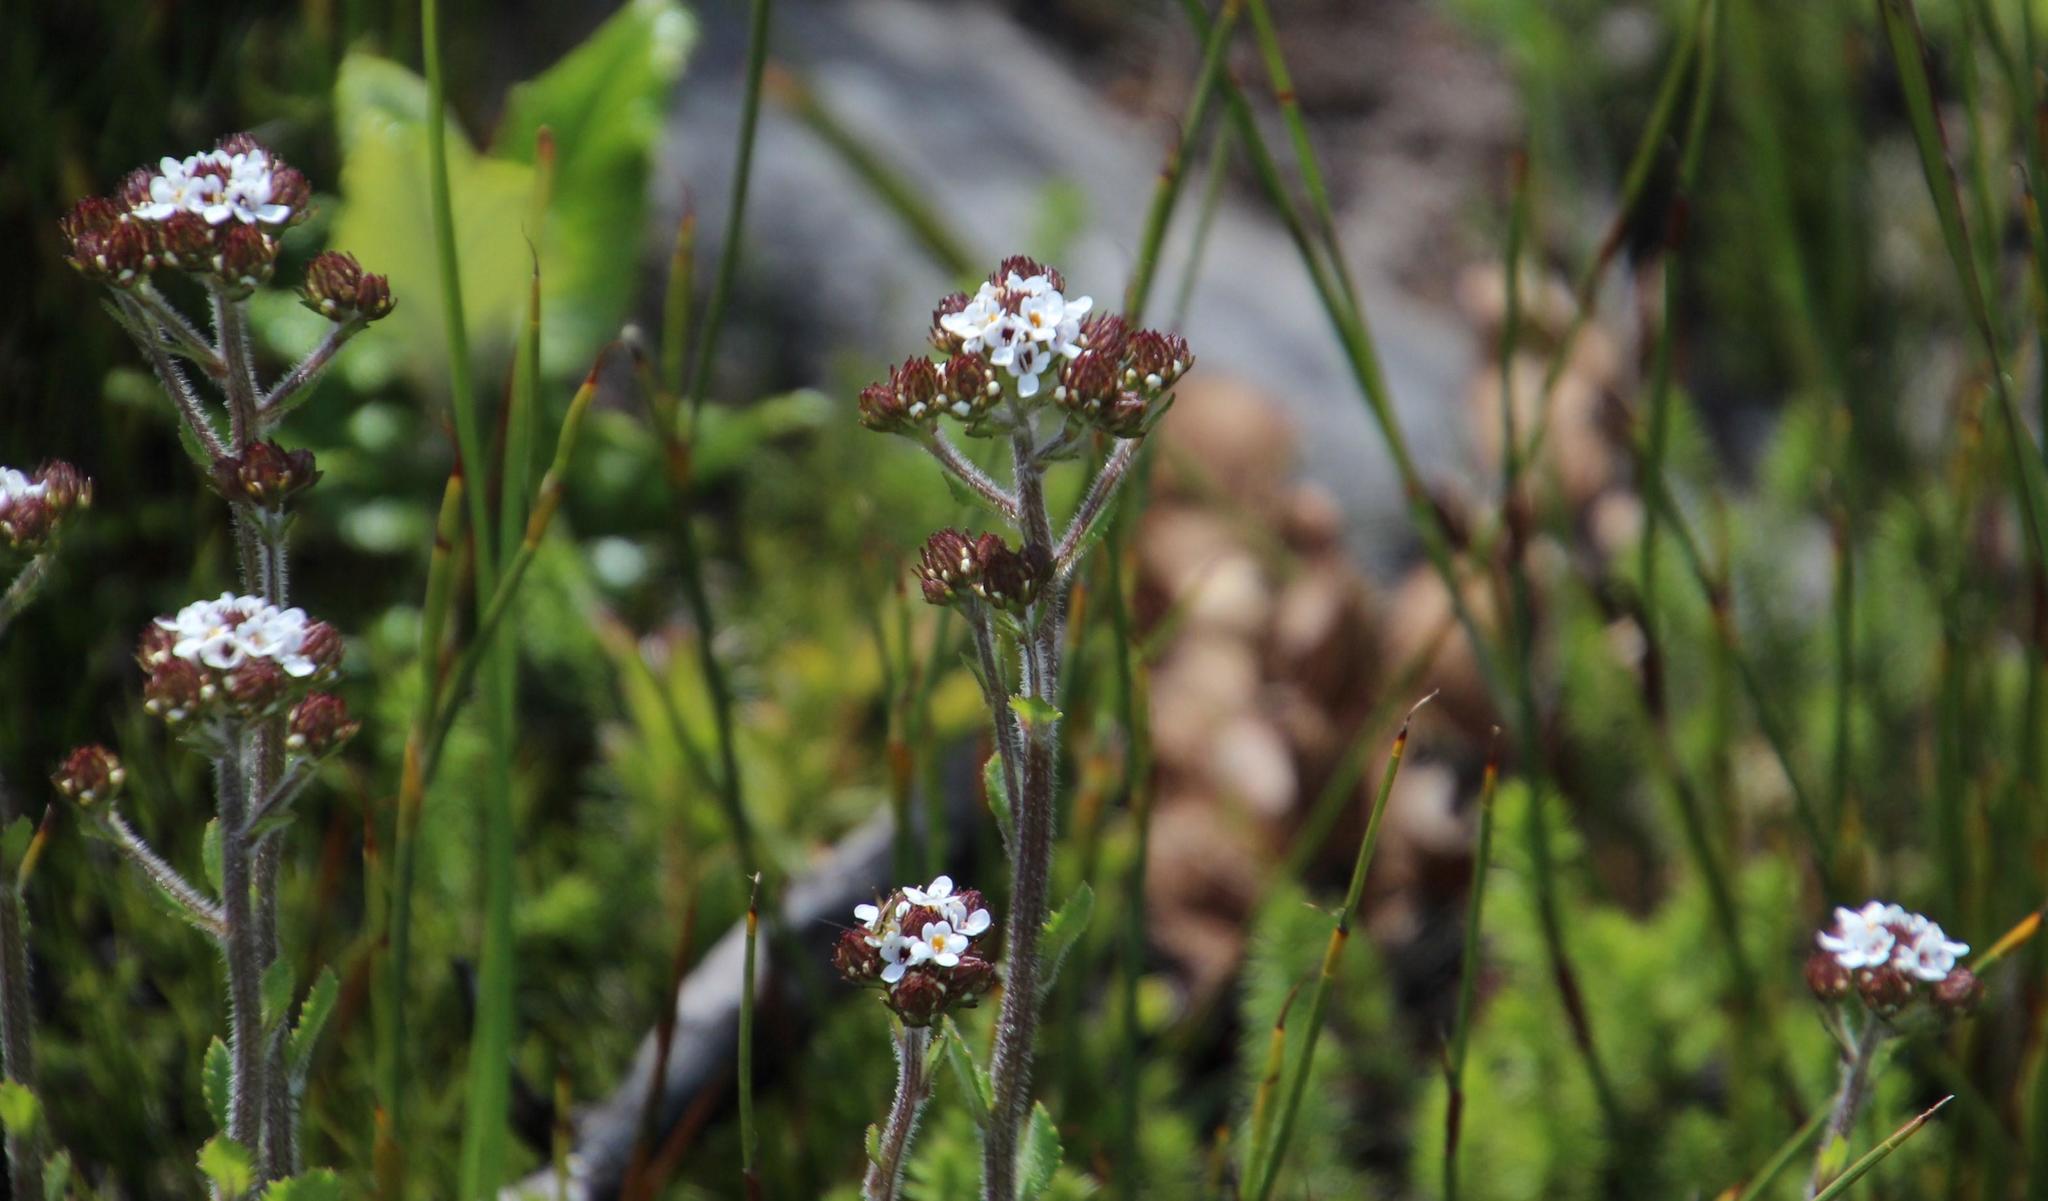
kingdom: Plantae
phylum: Tracheophyta
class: Magnoliopsida
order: Lamiales
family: Scrophulariaceae
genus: Pseudoselago
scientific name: Pseudoselago peninsulae
